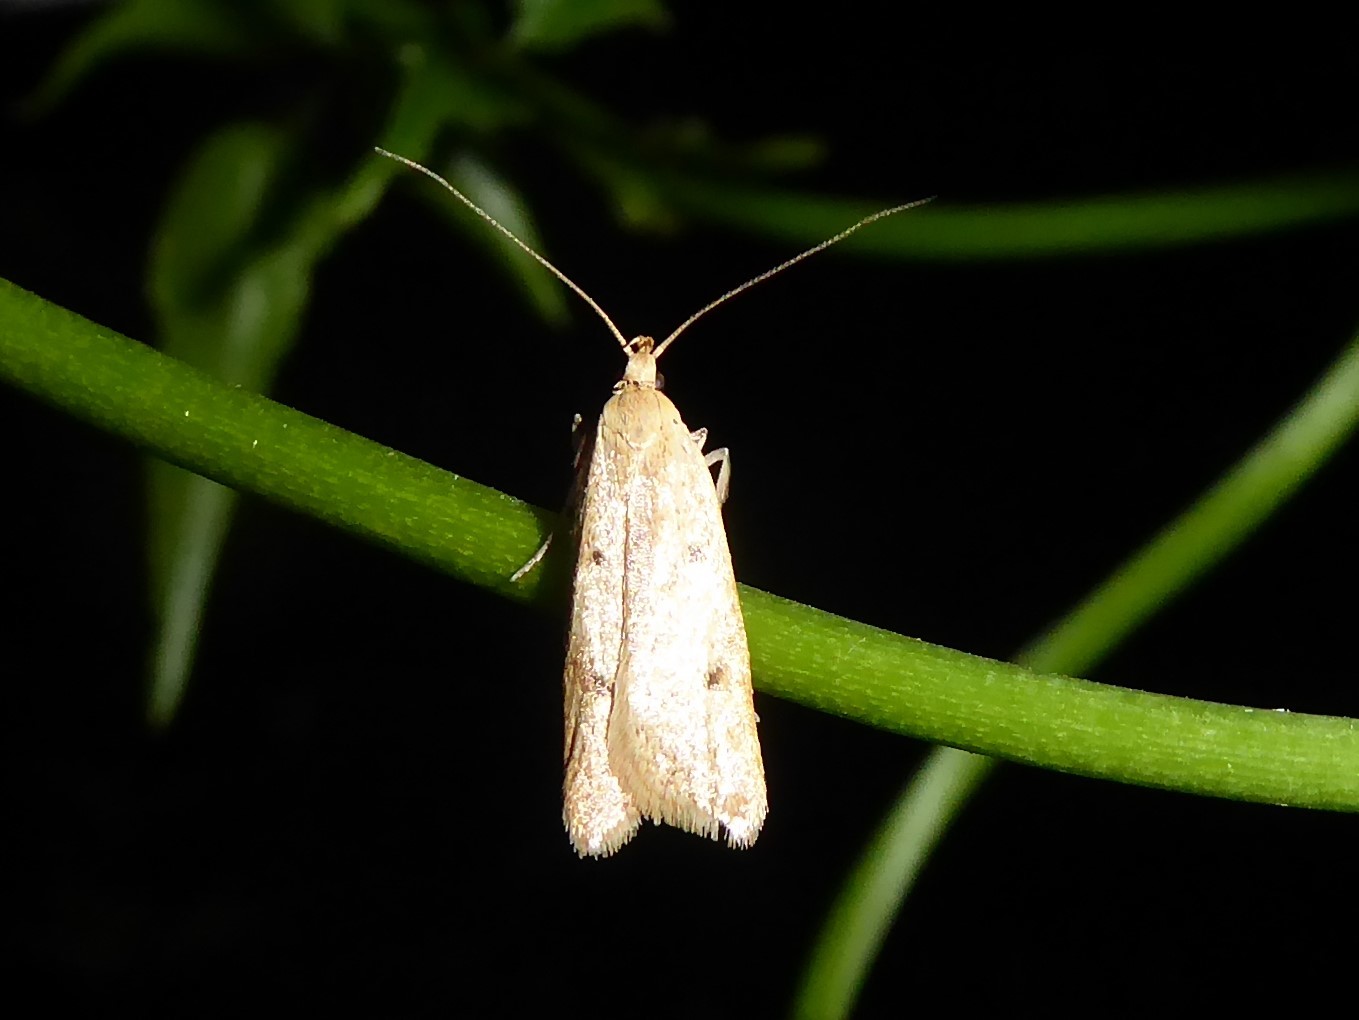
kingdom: Animalia
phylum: Arthropoda
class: Insecta
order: Lepidoptera
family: Oecophoridae
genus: Gymnobathra
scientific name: Gymnobathra sarcoxantha
